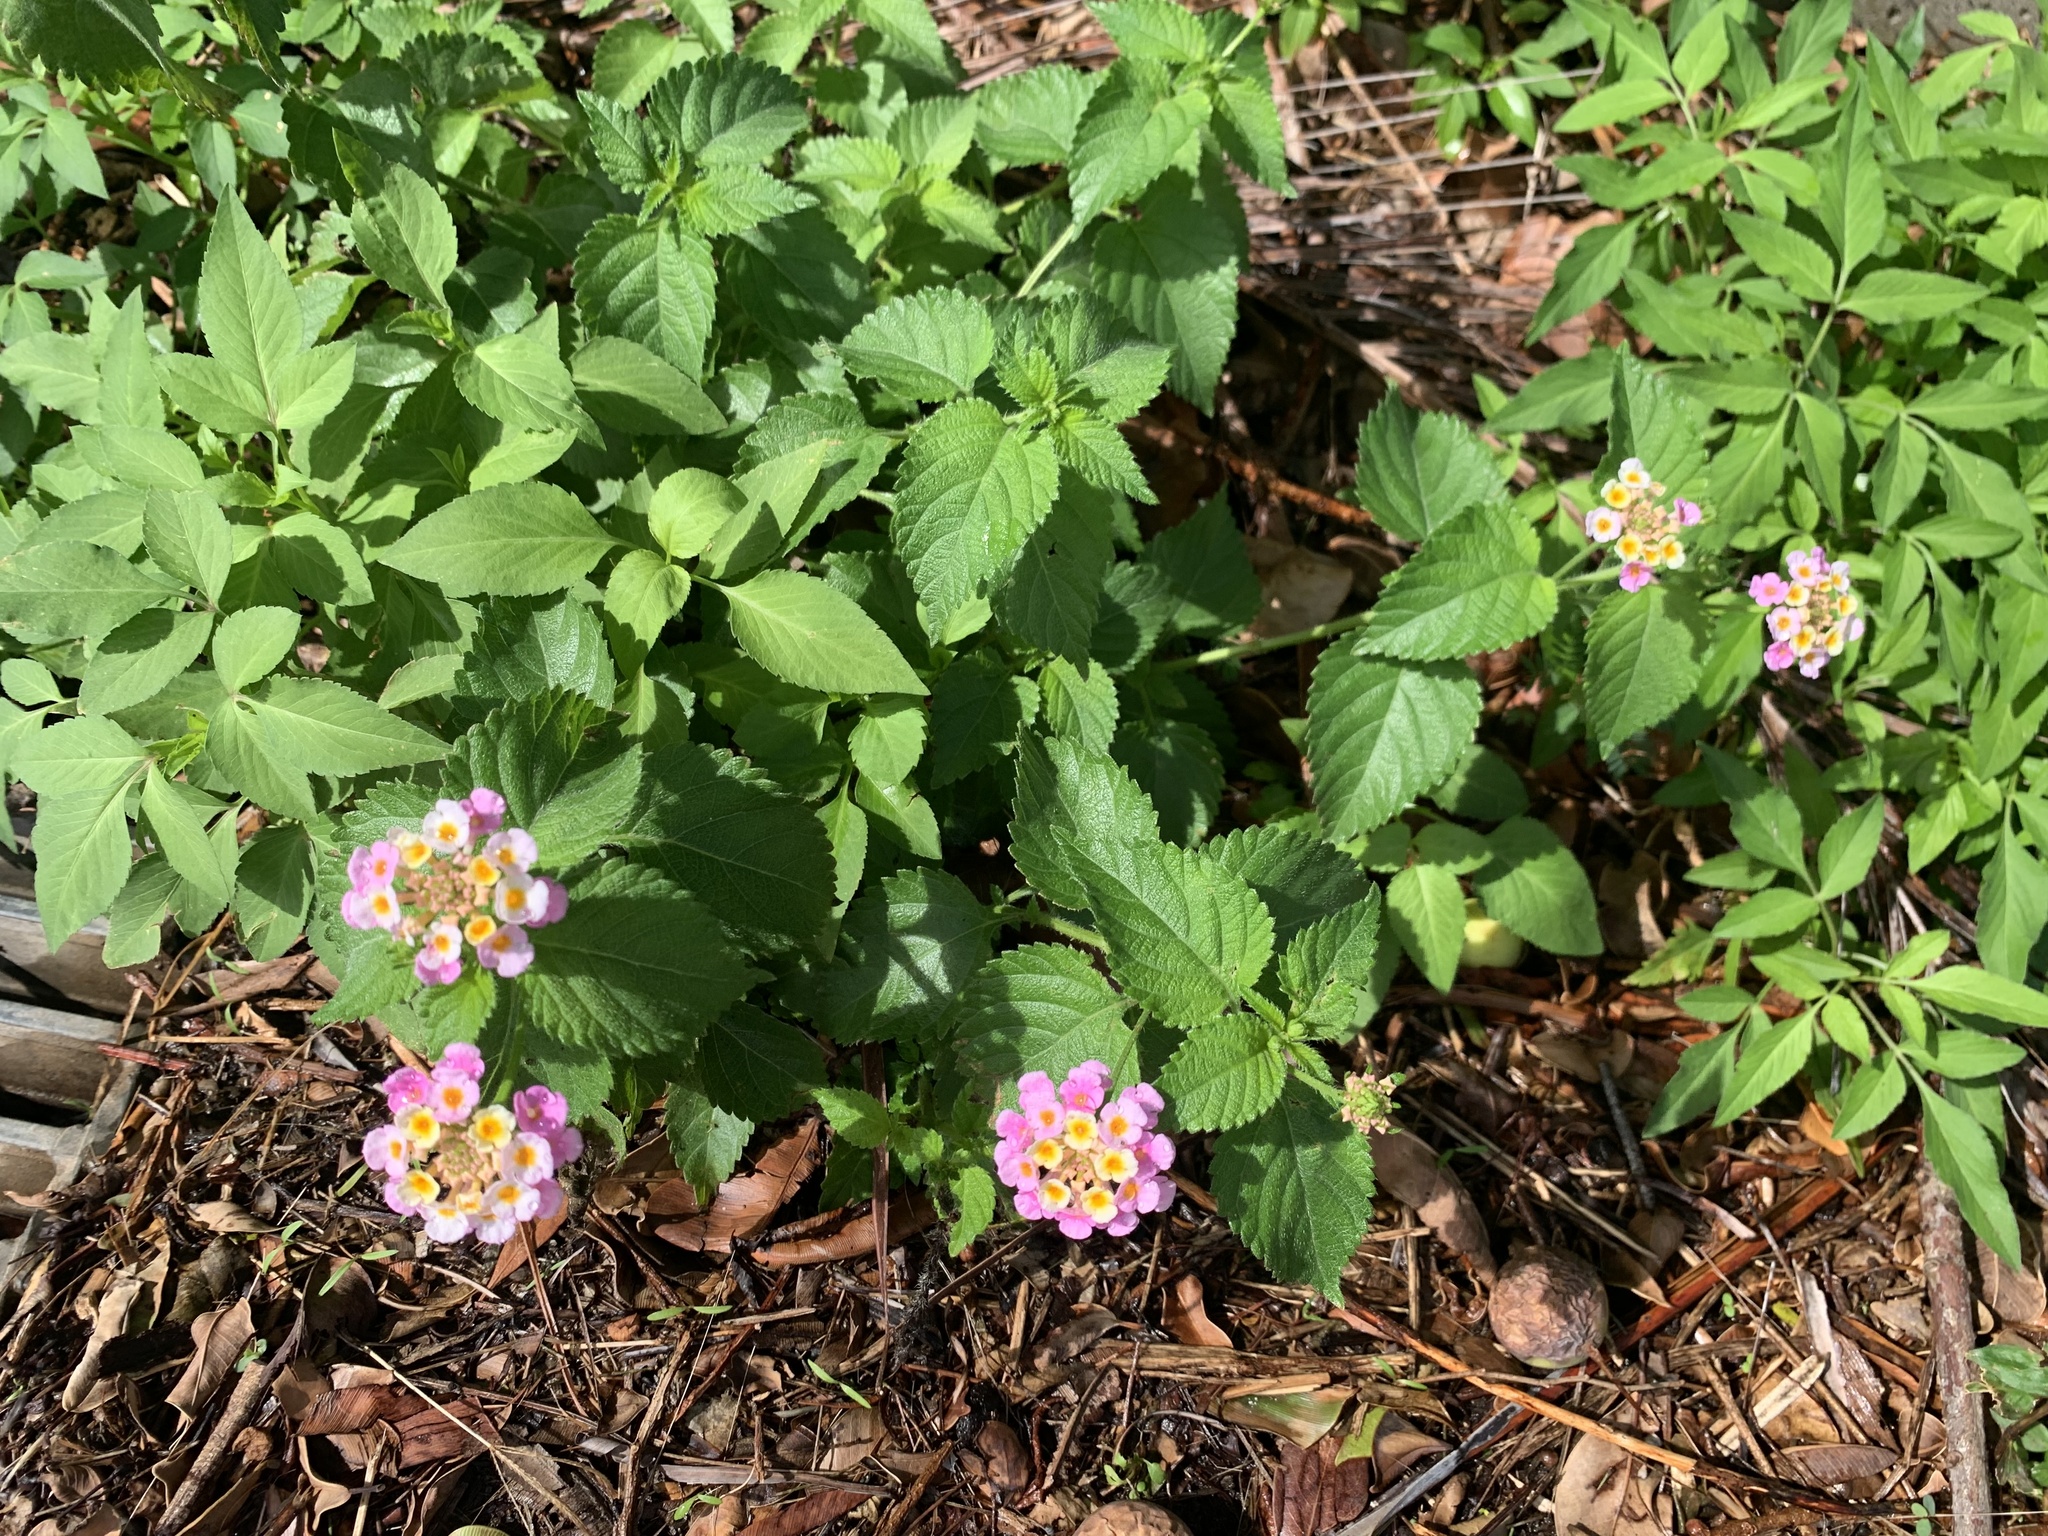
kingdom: Plantae
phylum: Tracheophyta
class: Magnoliopsida
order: Lamiales
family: Verbenaceae
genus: Lantana
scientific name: Lantana camara
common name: Lantana
